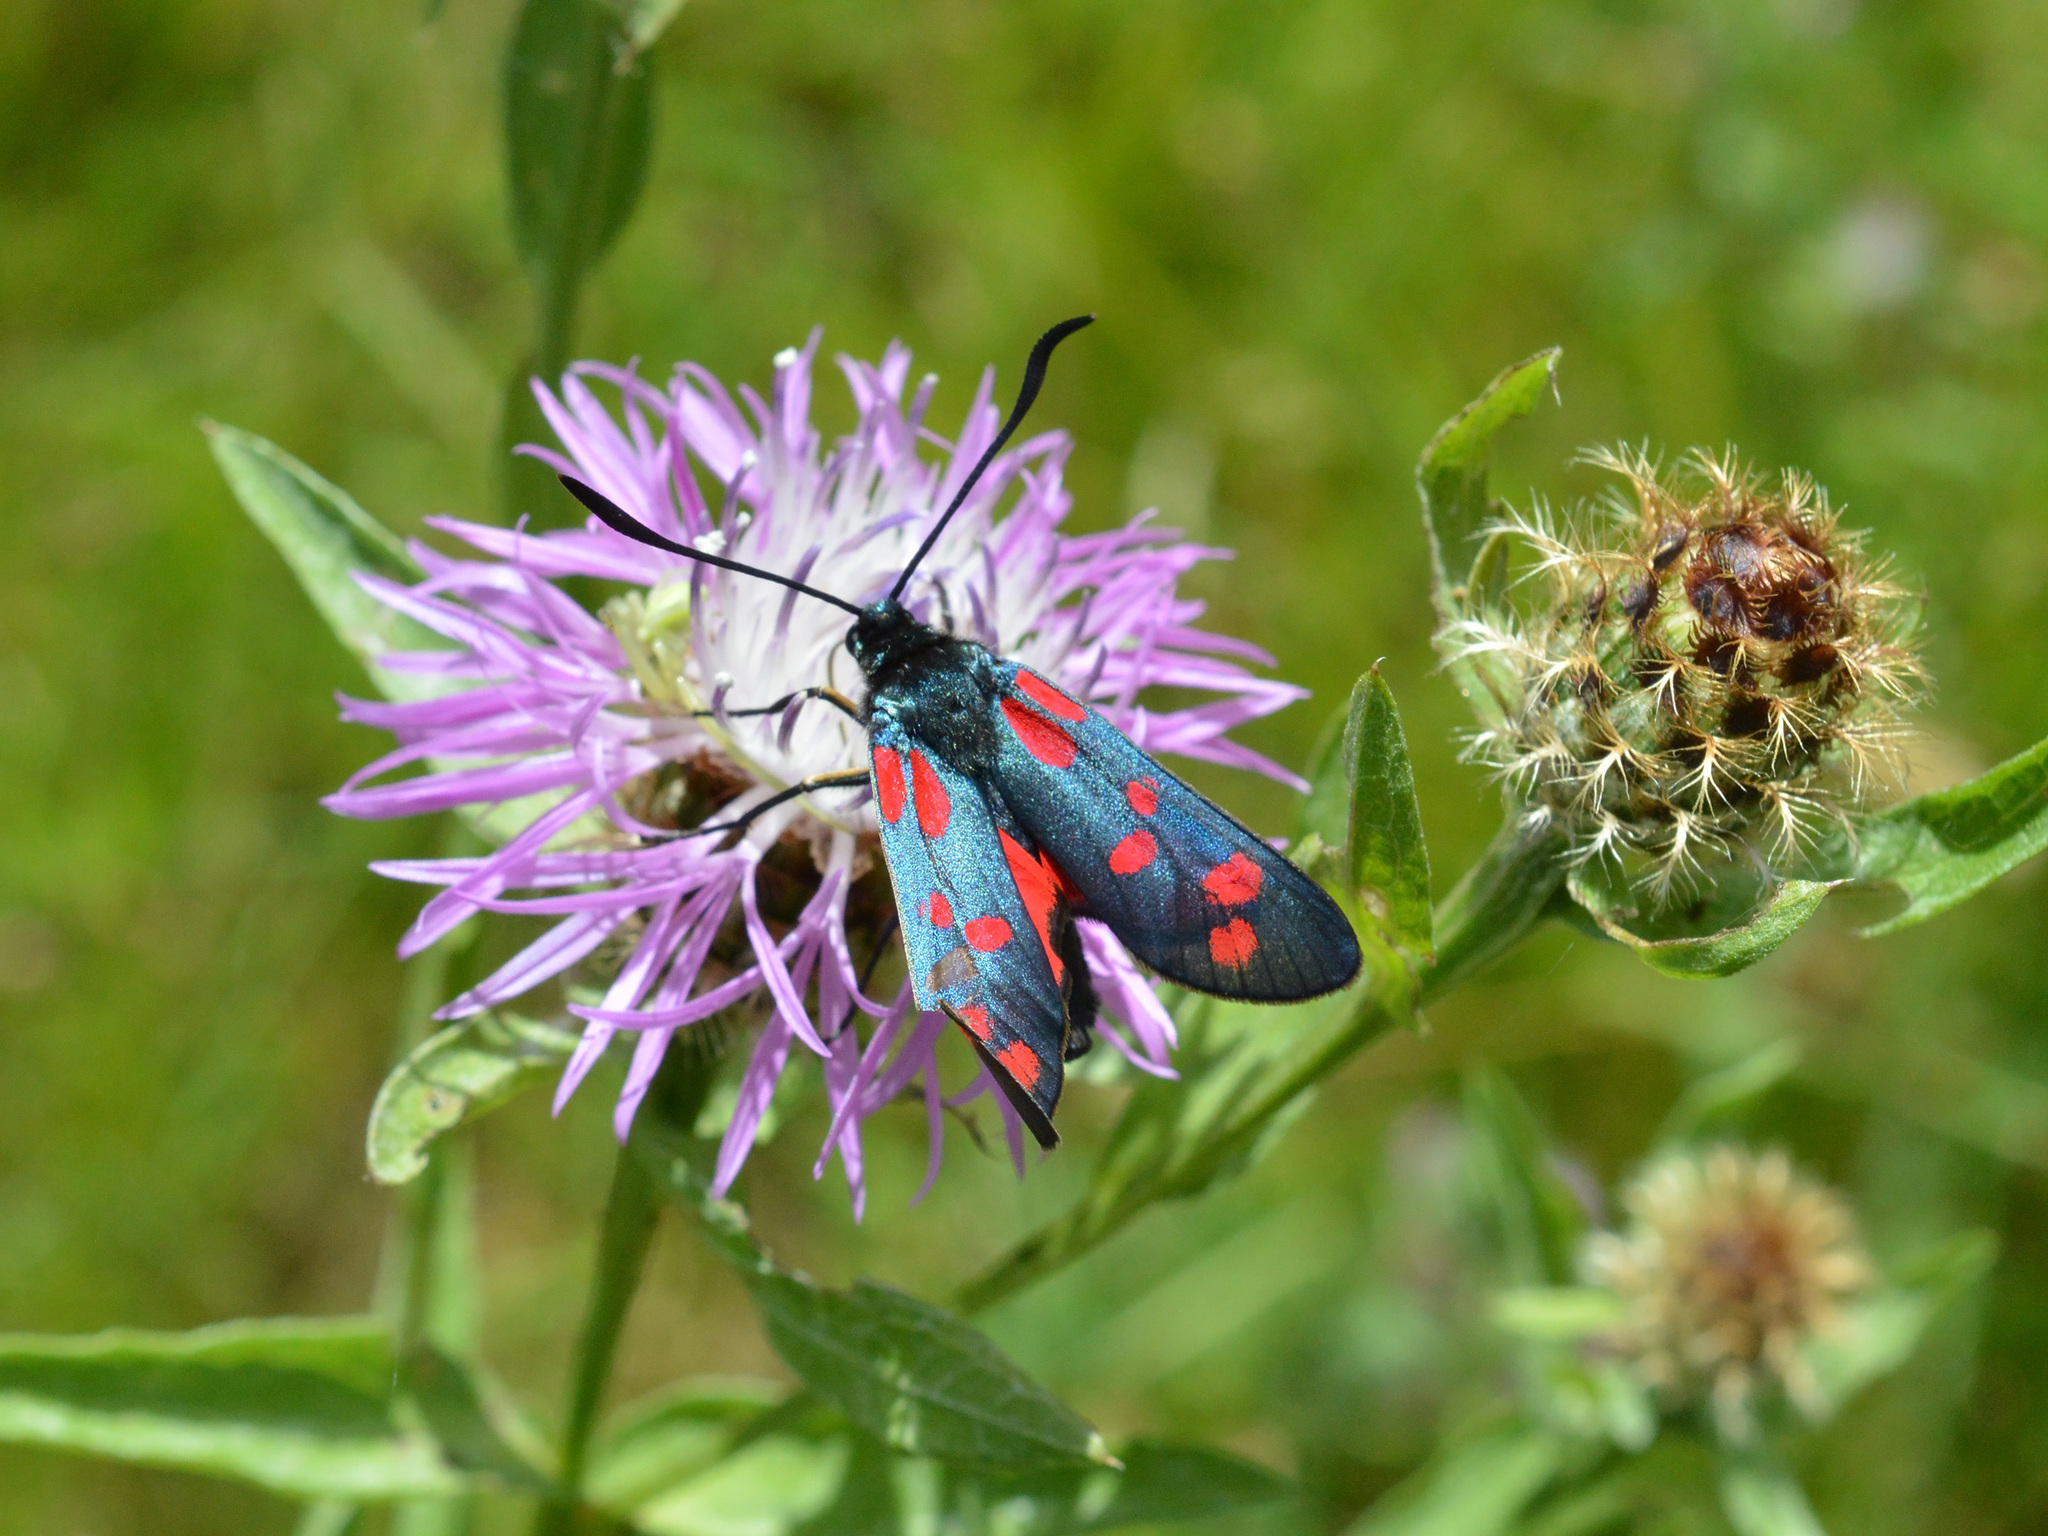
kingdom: Animalia
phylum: Arthropoda
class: Insecta
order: Lepidoptera
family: Zygaenidae
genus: Zygaena
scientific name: Zygaena filipendulae
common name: Six-spot burnet
